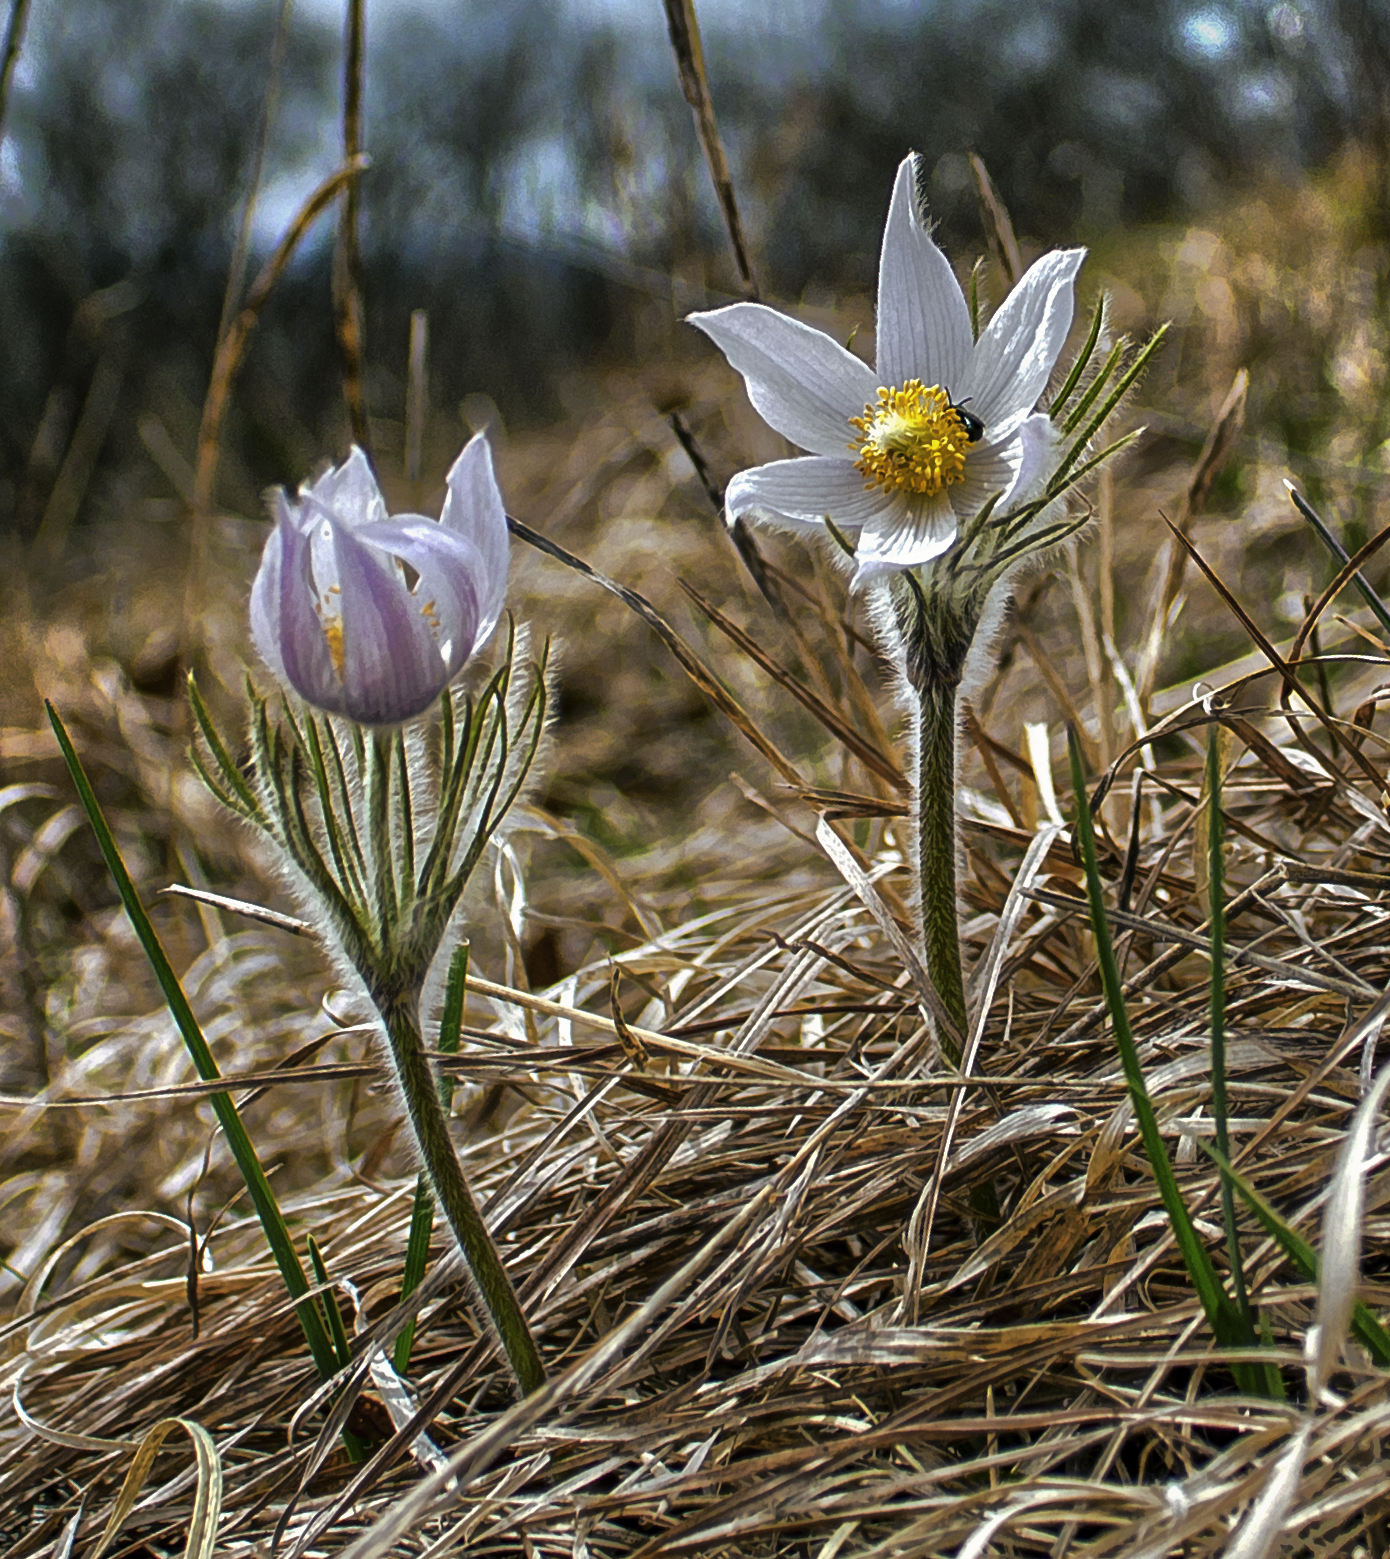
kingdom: Plantae
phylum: Tracheophyta
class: Magnoliopsida
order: Ranunculales
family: Ranunculaceae
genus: Pulsatilla
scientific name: Pulsatilla nuttalliana
